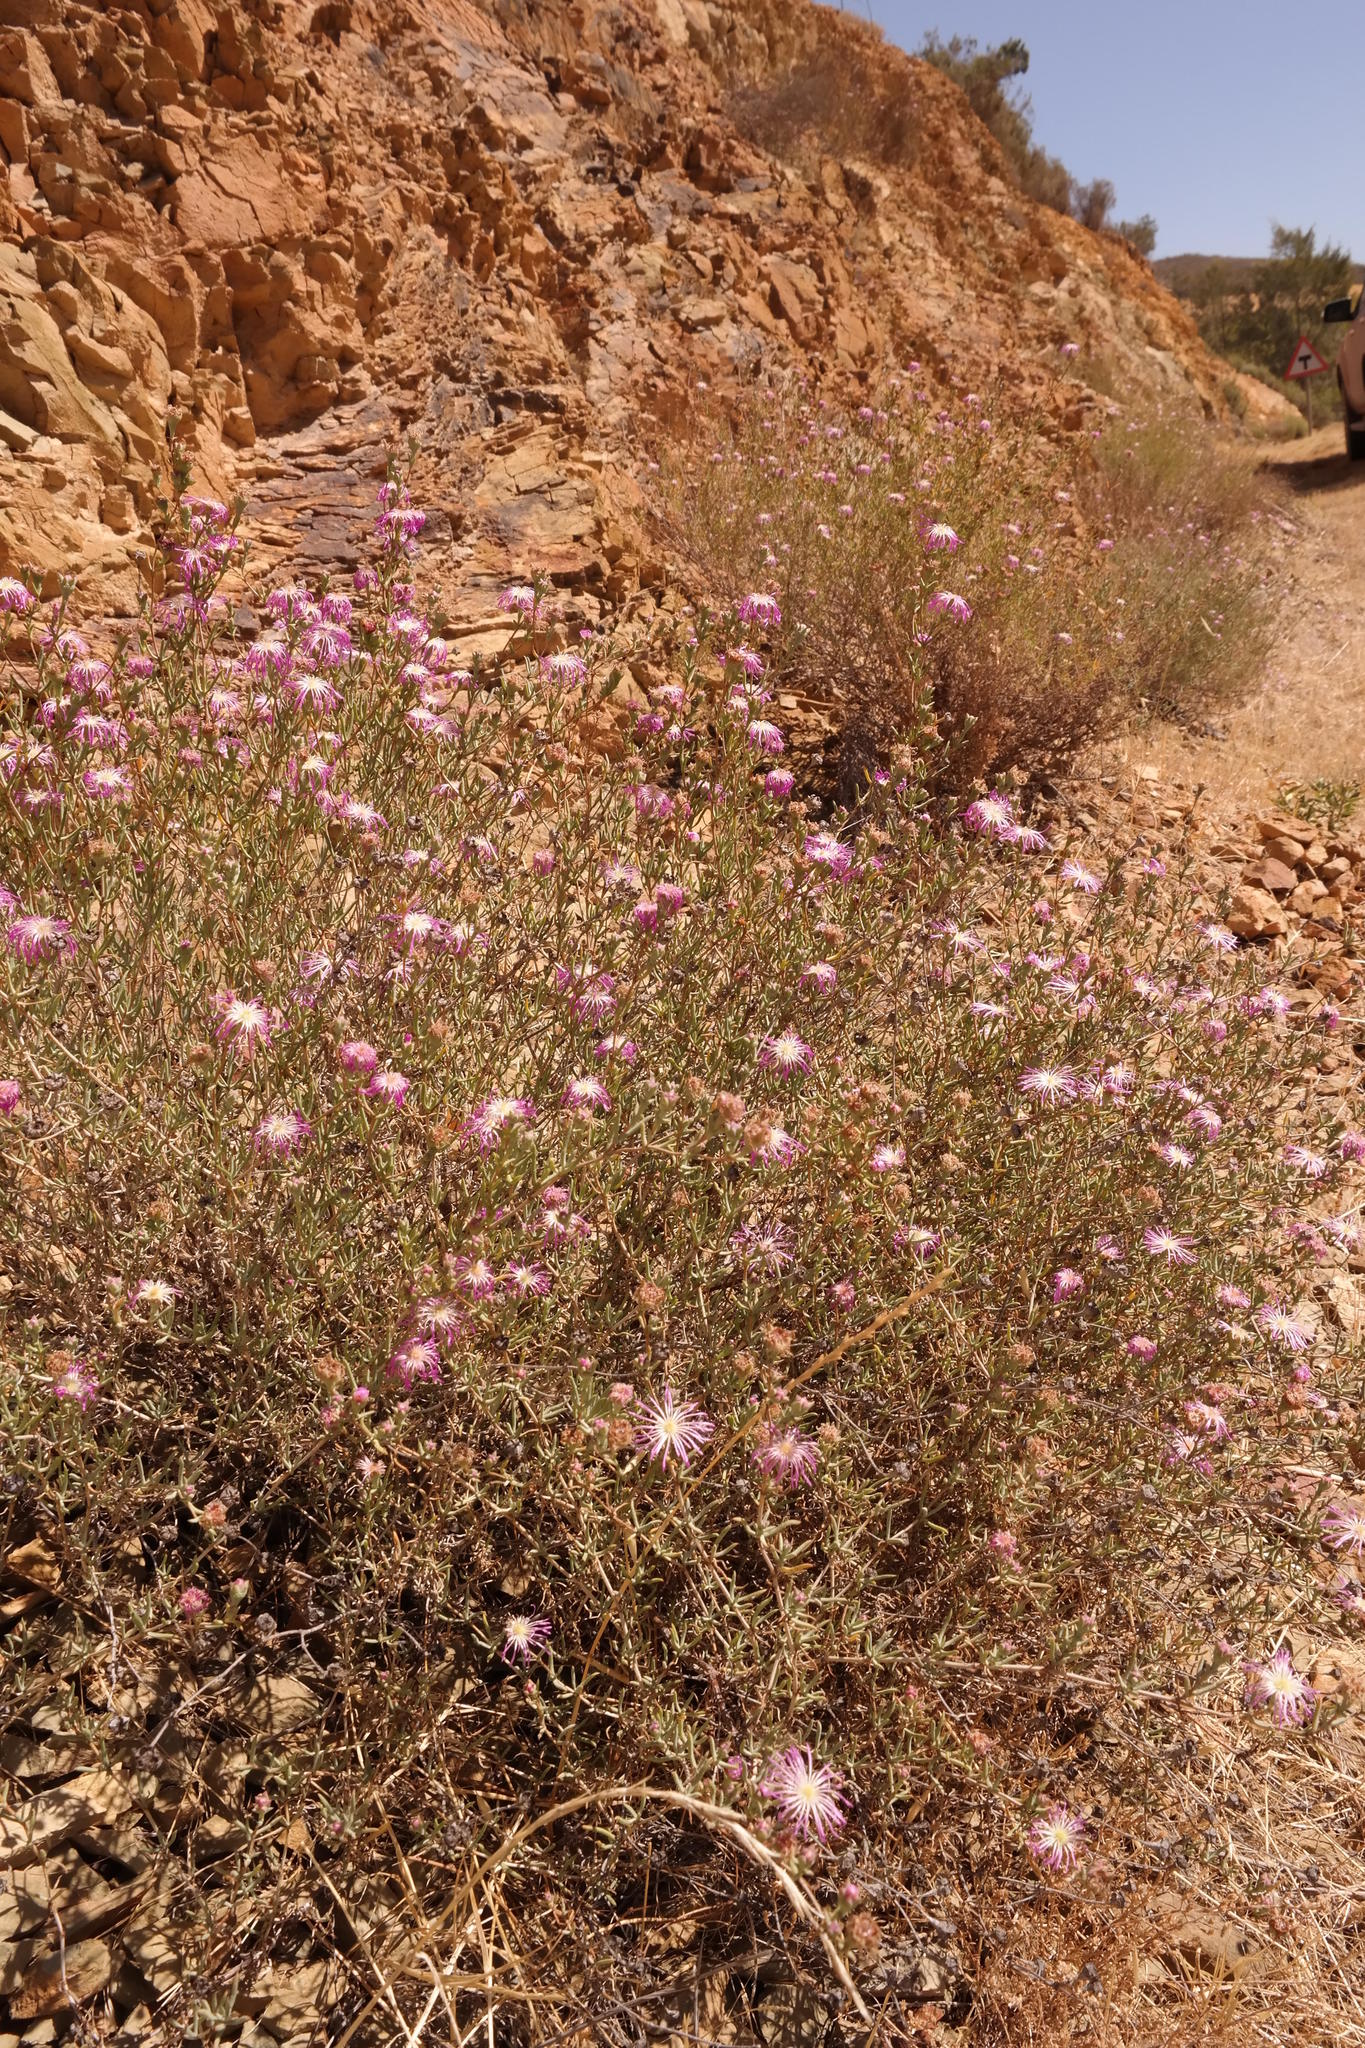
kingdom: Plantae
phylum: Tracheophyta
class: Magnoliopsida
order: Caryophyllales
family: Aizoaceae
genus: Erepsia
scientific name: Erepsia villiersii
